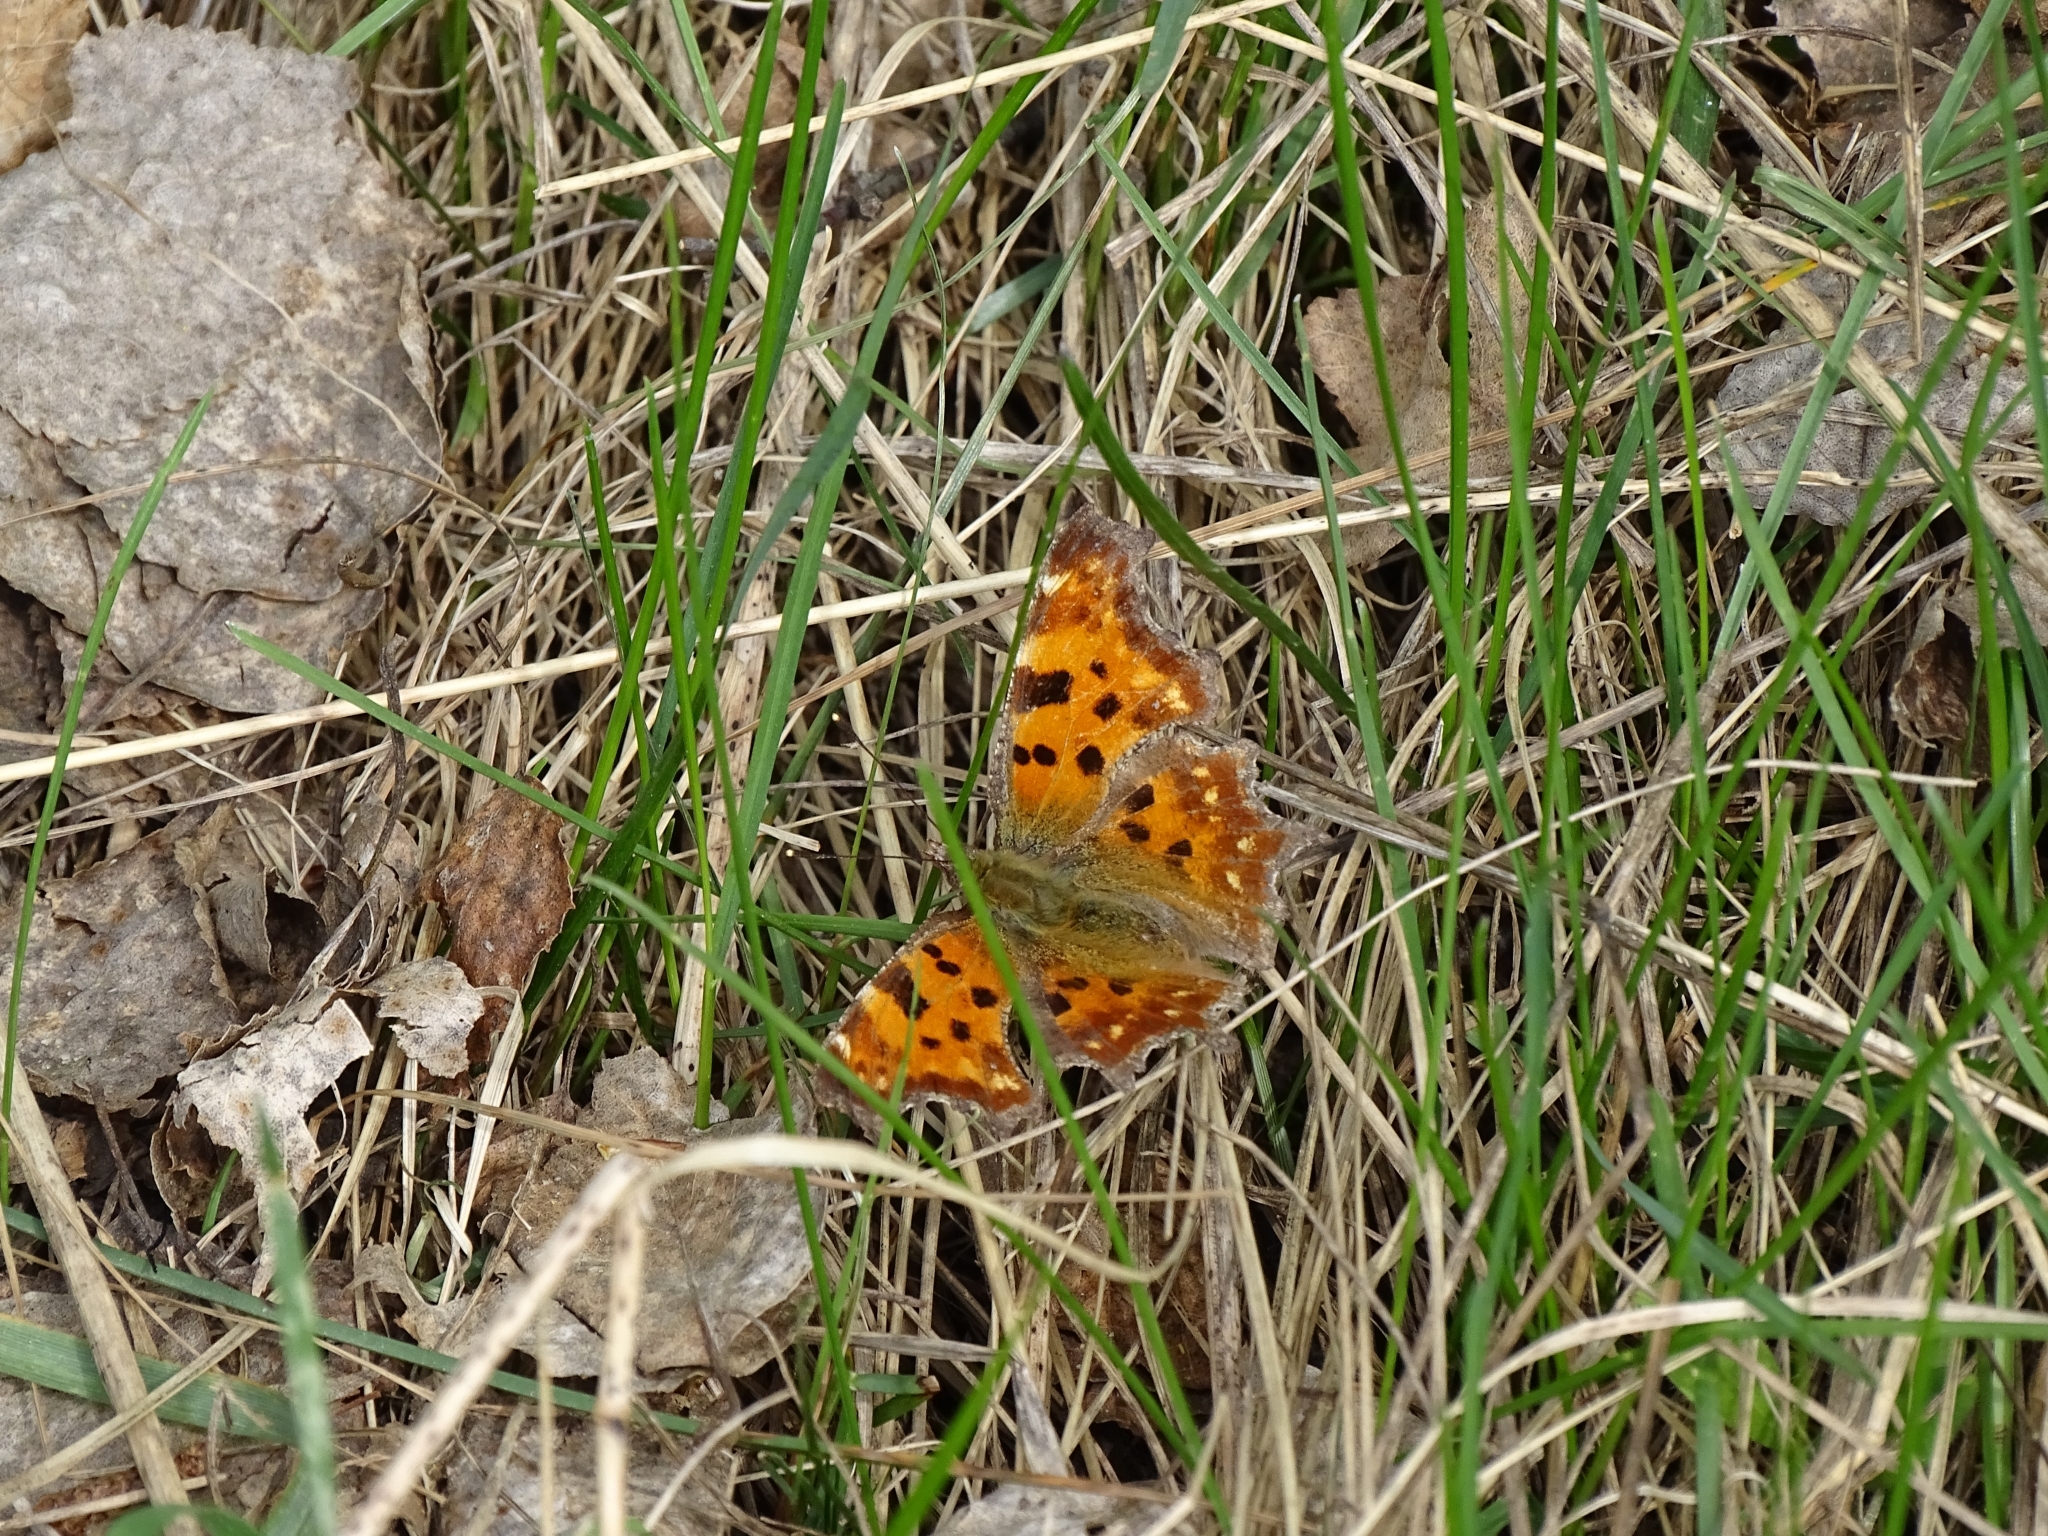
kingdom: Animalia
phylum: Arthropoda
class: Insecta
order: Lepidoptera
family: Nymphalidae
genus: Polygonia
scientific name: Polygonia c-album
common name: Comma
